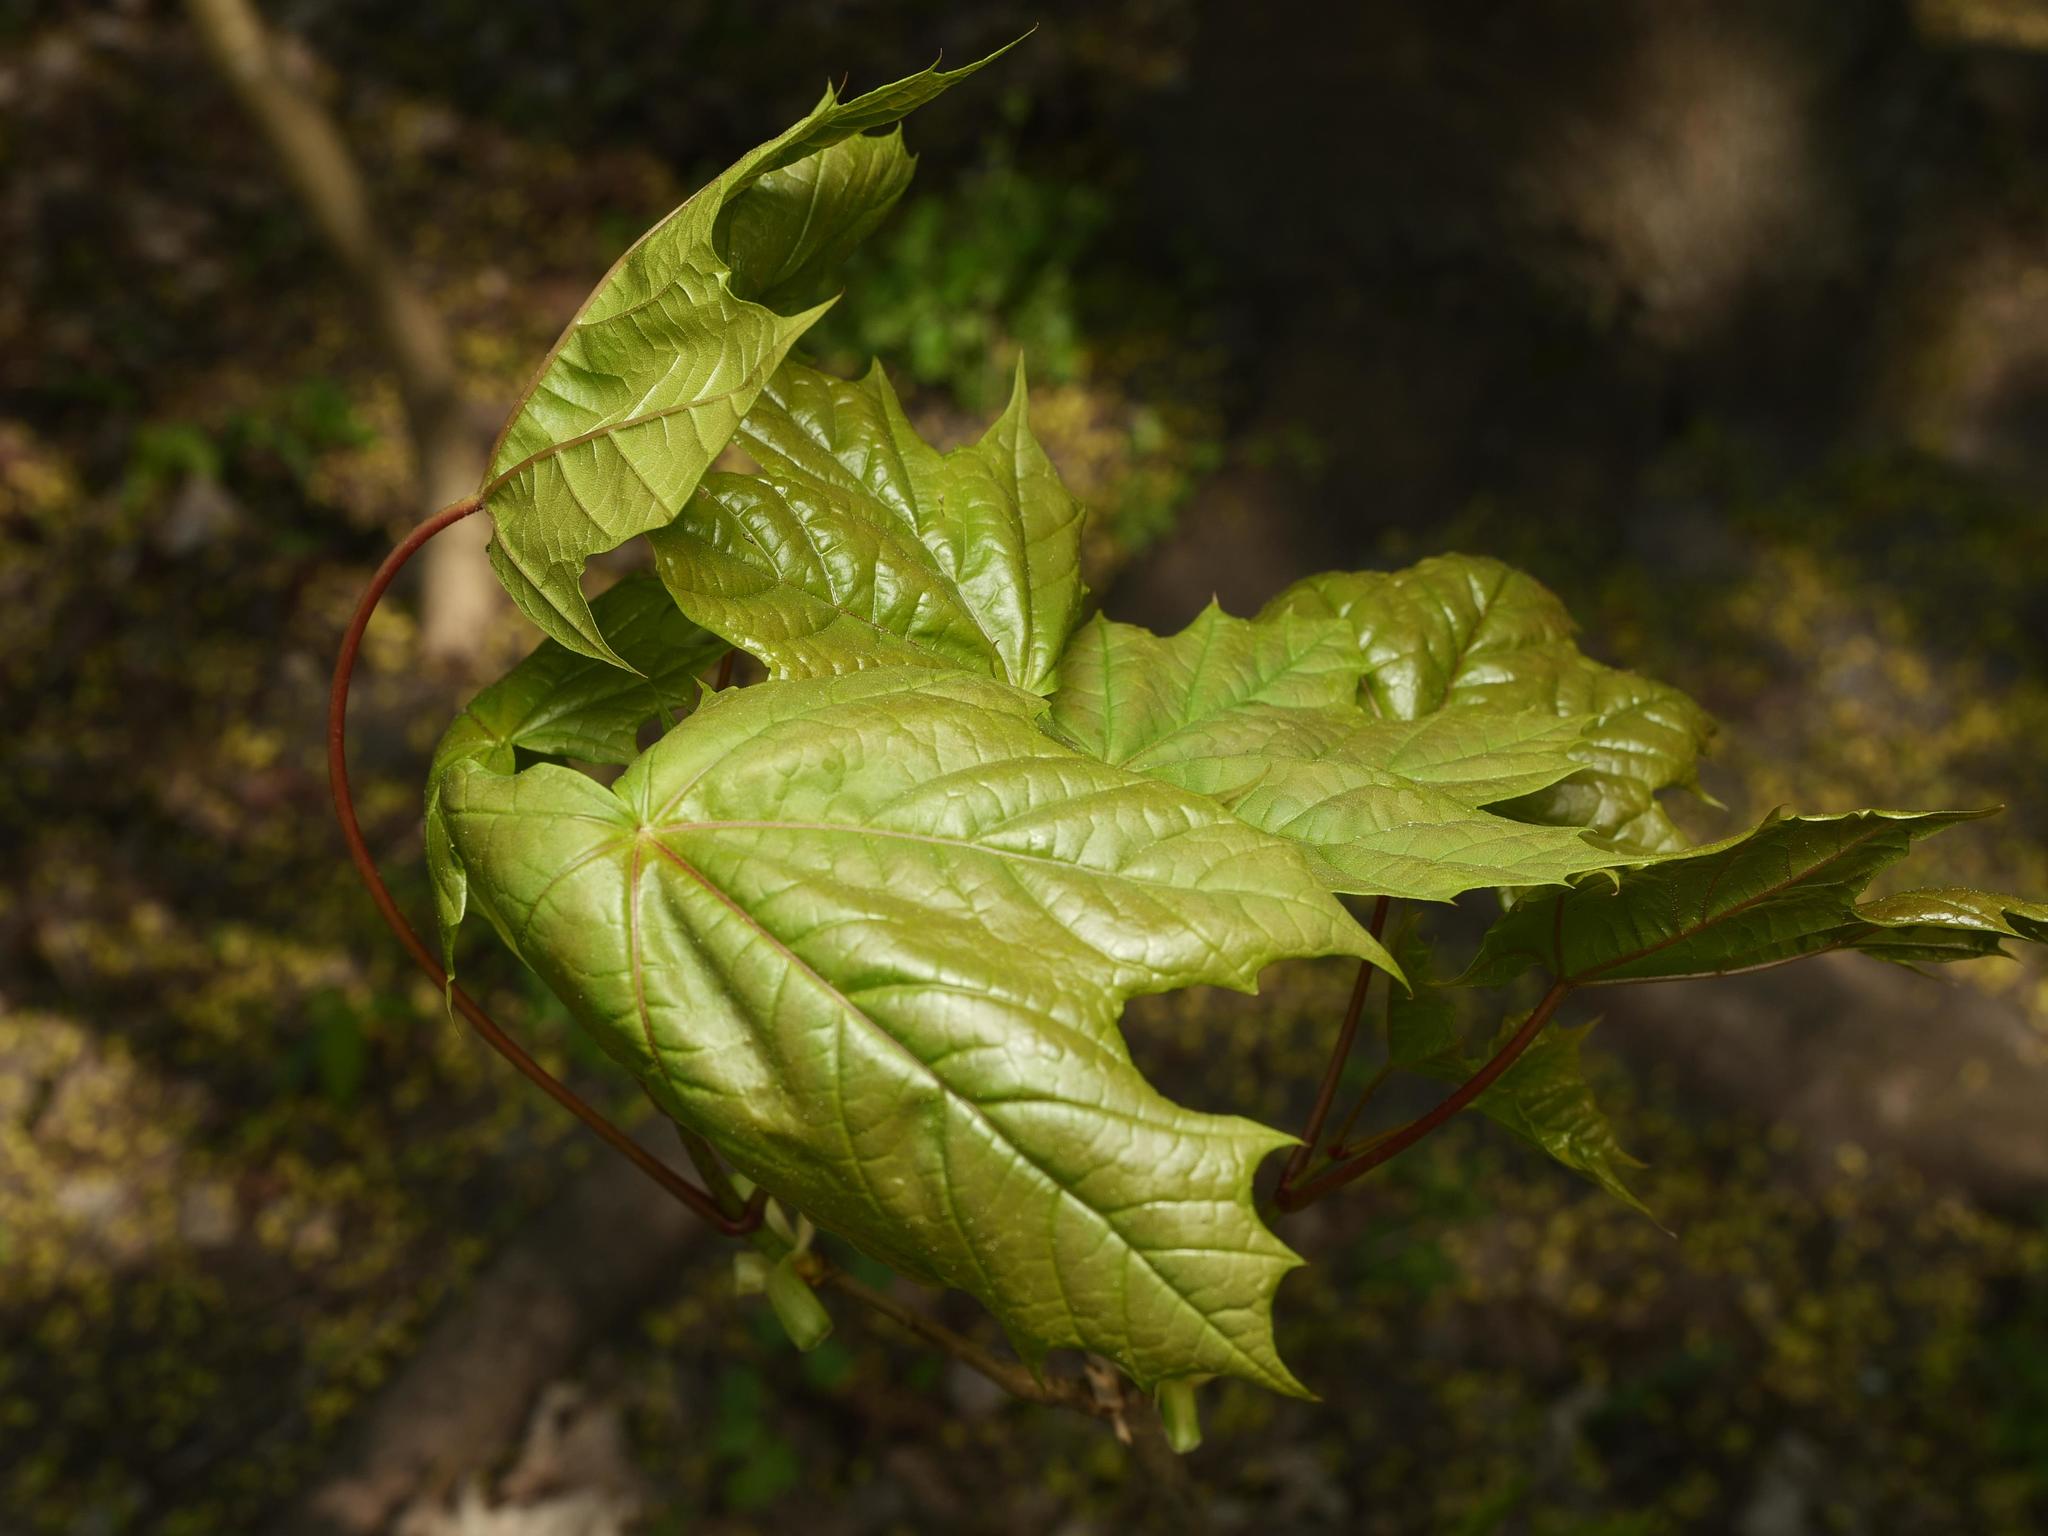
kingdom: Plantae
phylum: Tracheophyta
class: Magnoliopsida
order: Sapindales
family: Sapindaceae
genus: Acer
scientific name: Acer platanoides
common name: Norway maple
